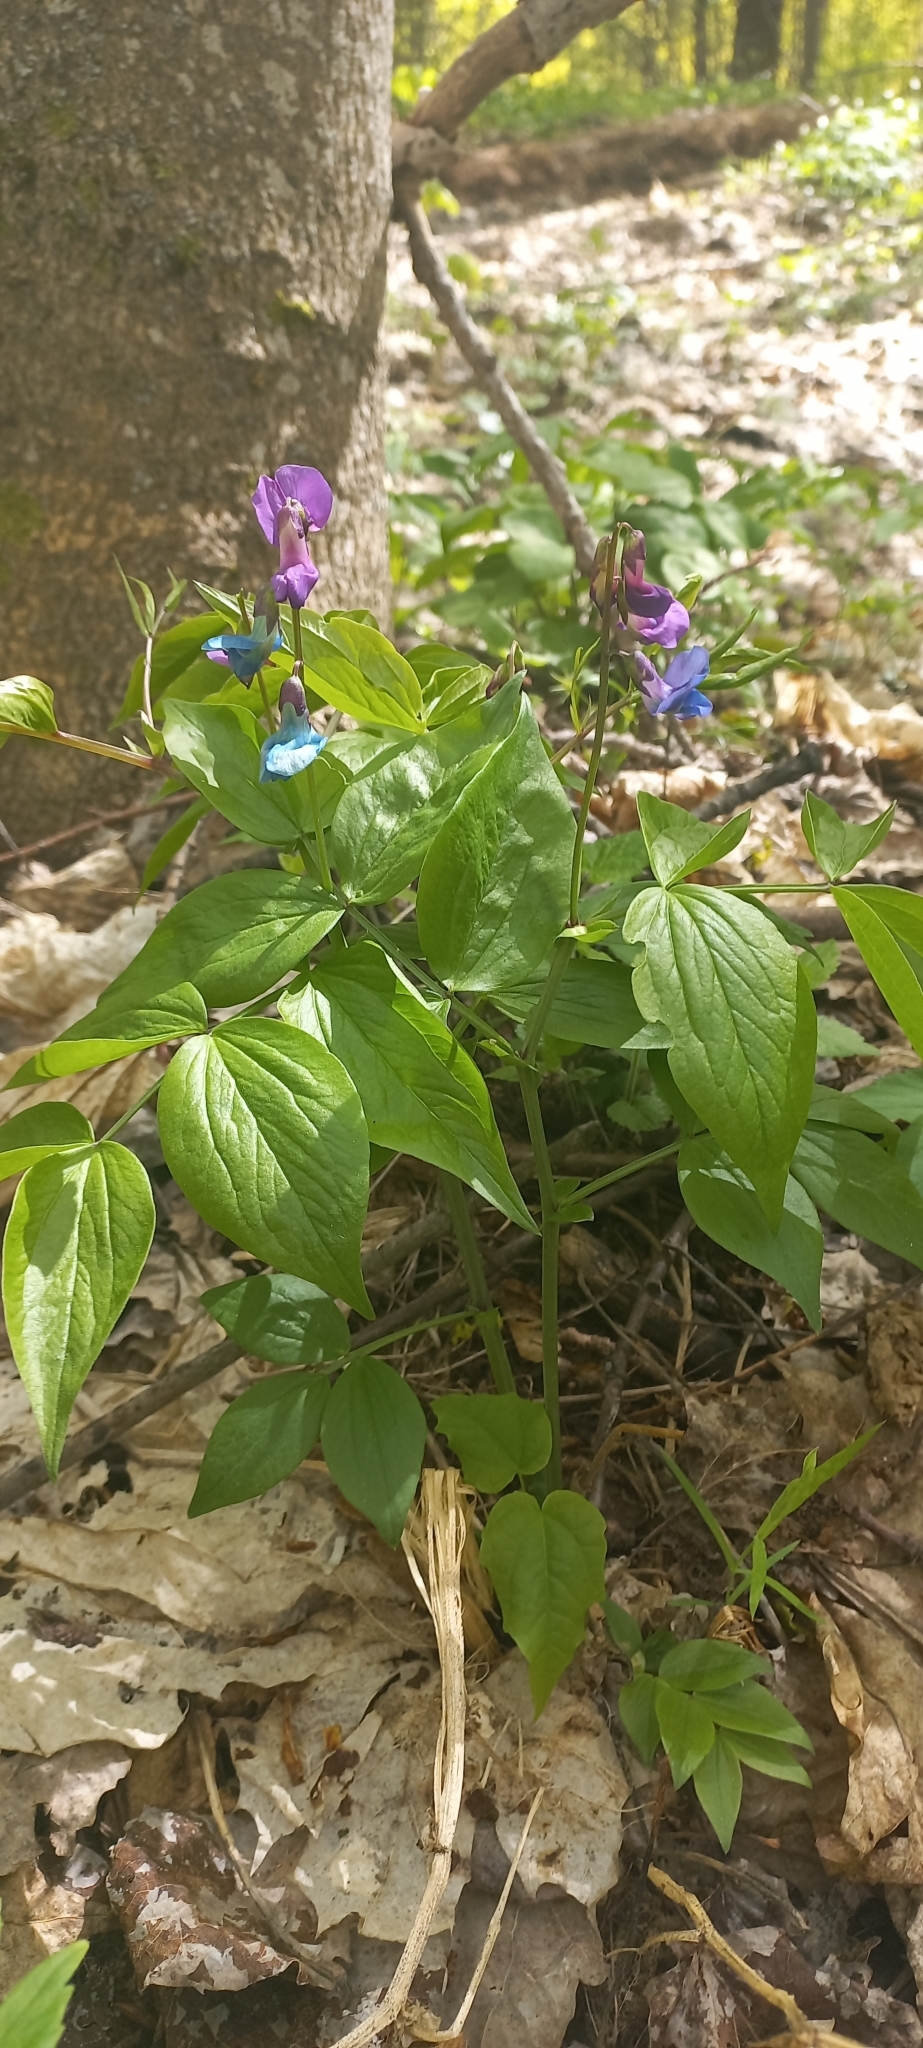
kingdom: Plantae
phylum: Tracheophyta
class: Magnoliopsida
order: Fabales
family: Fabaceae
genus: Lathyrus
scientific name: Lathyrus vernus
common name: Spring pea
